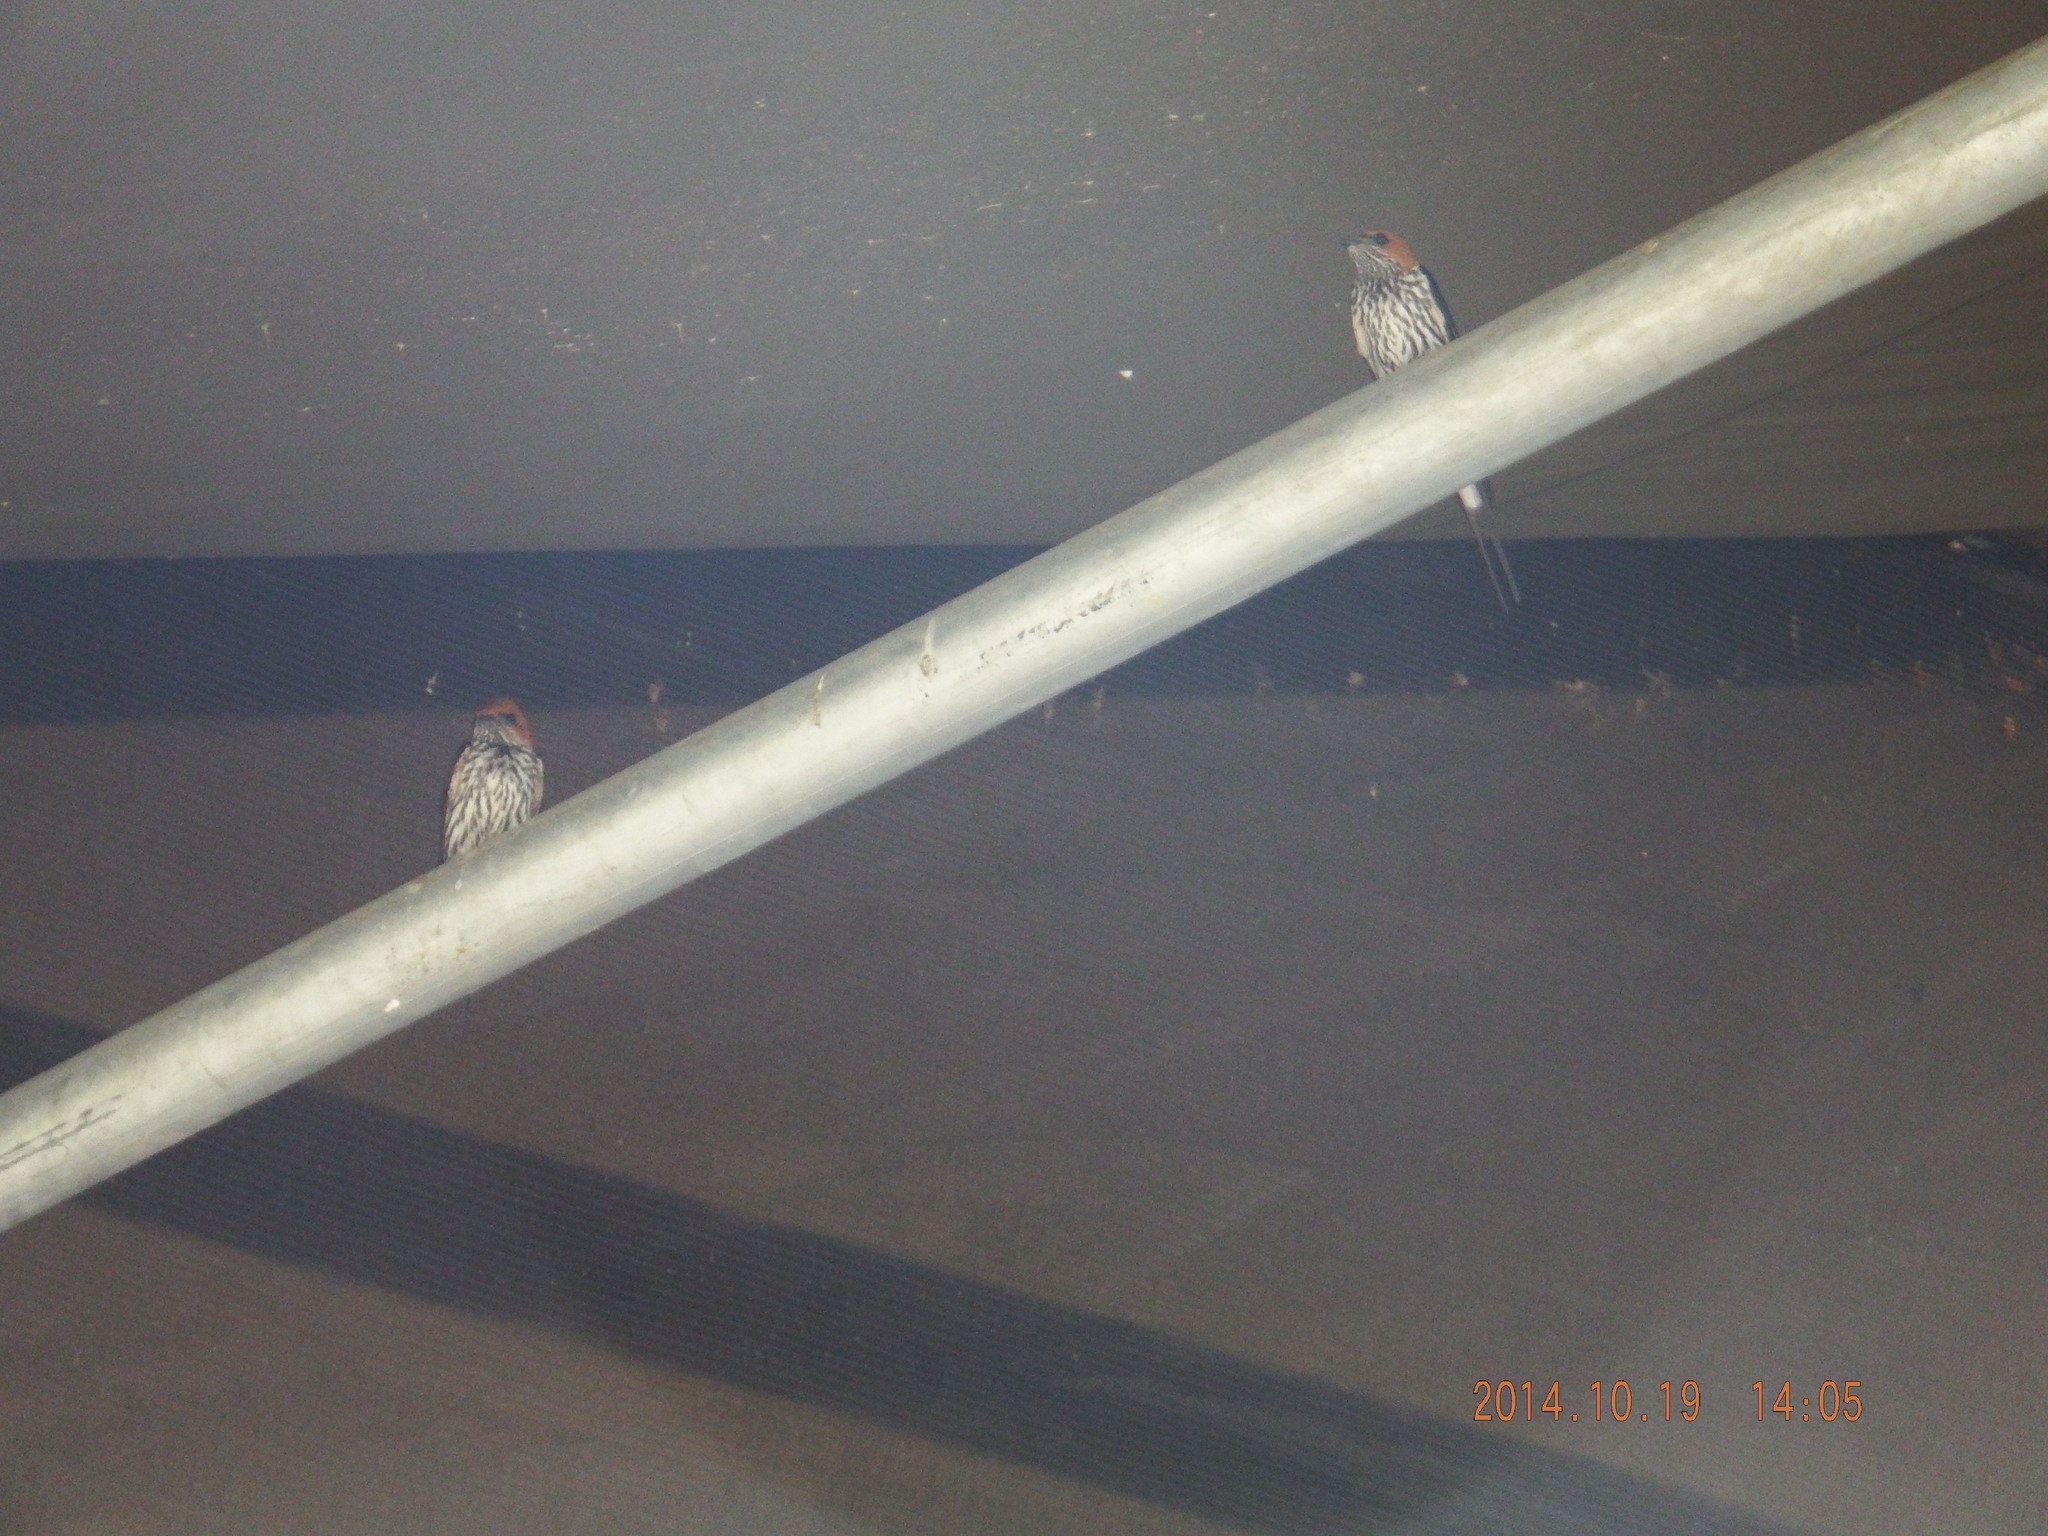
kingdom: Animalia
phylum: Chordata
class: Aves
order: Passeriformes
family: Hirundinidae
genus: Cecropis
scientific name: Cecropis abyssinica
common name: Lesser striped-swallow
